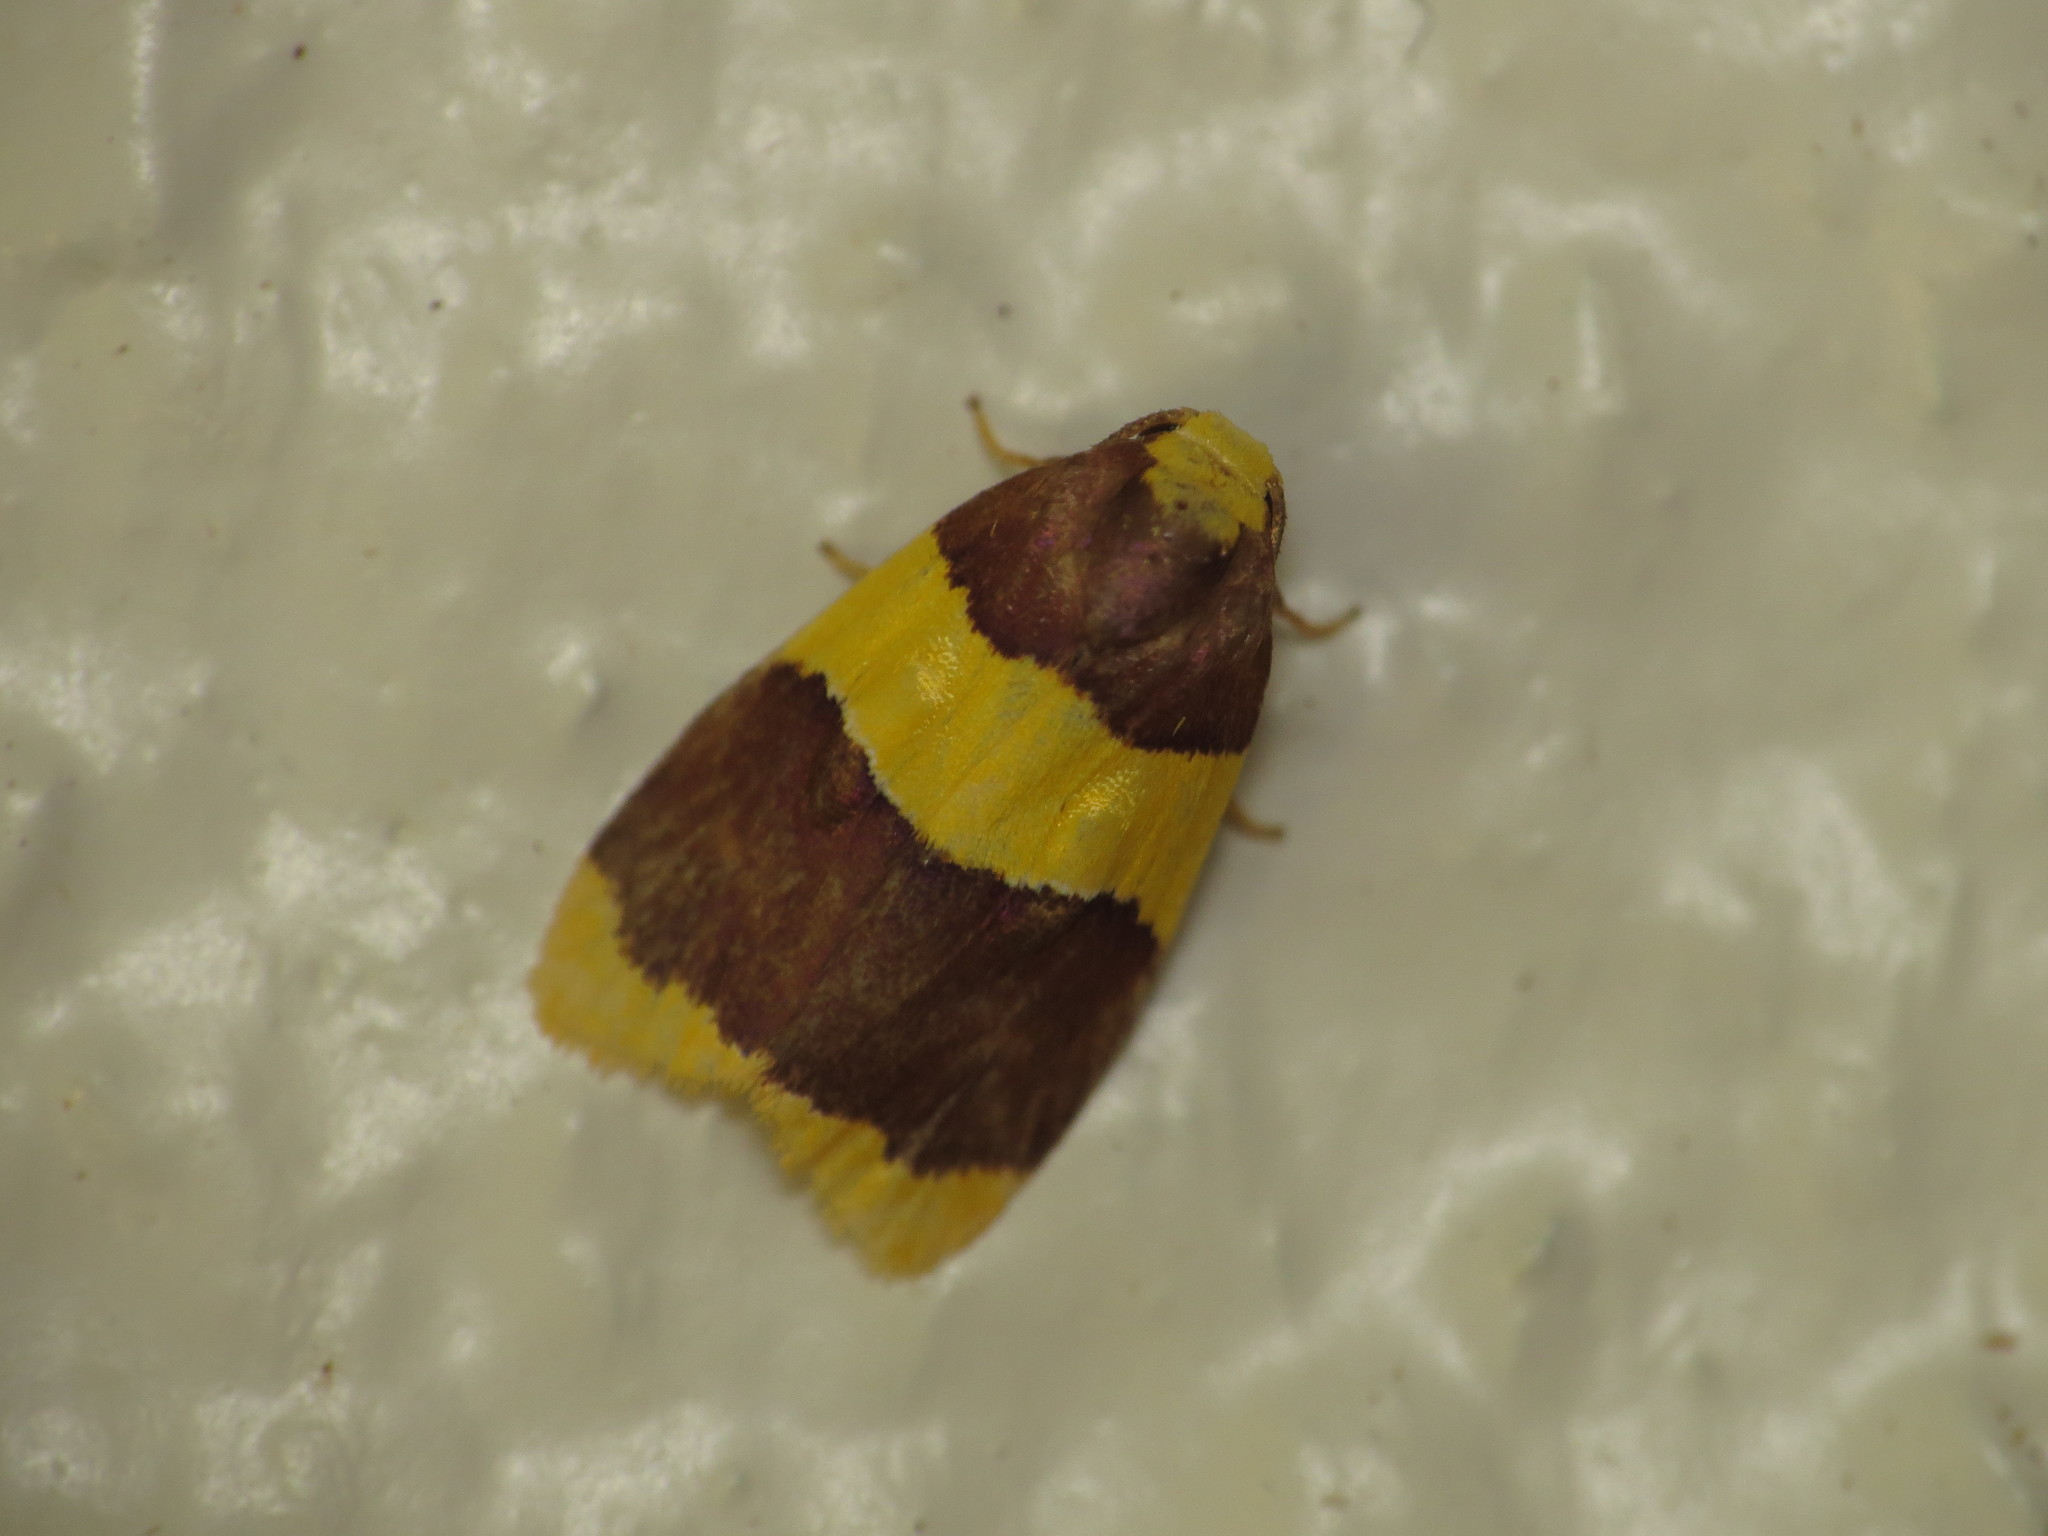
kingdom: Animalia
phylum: Arthropoda
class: Insecta
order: Lepidoptera
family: Erebidae
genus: Heterallactis
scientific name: Heterallactis phlogozona
